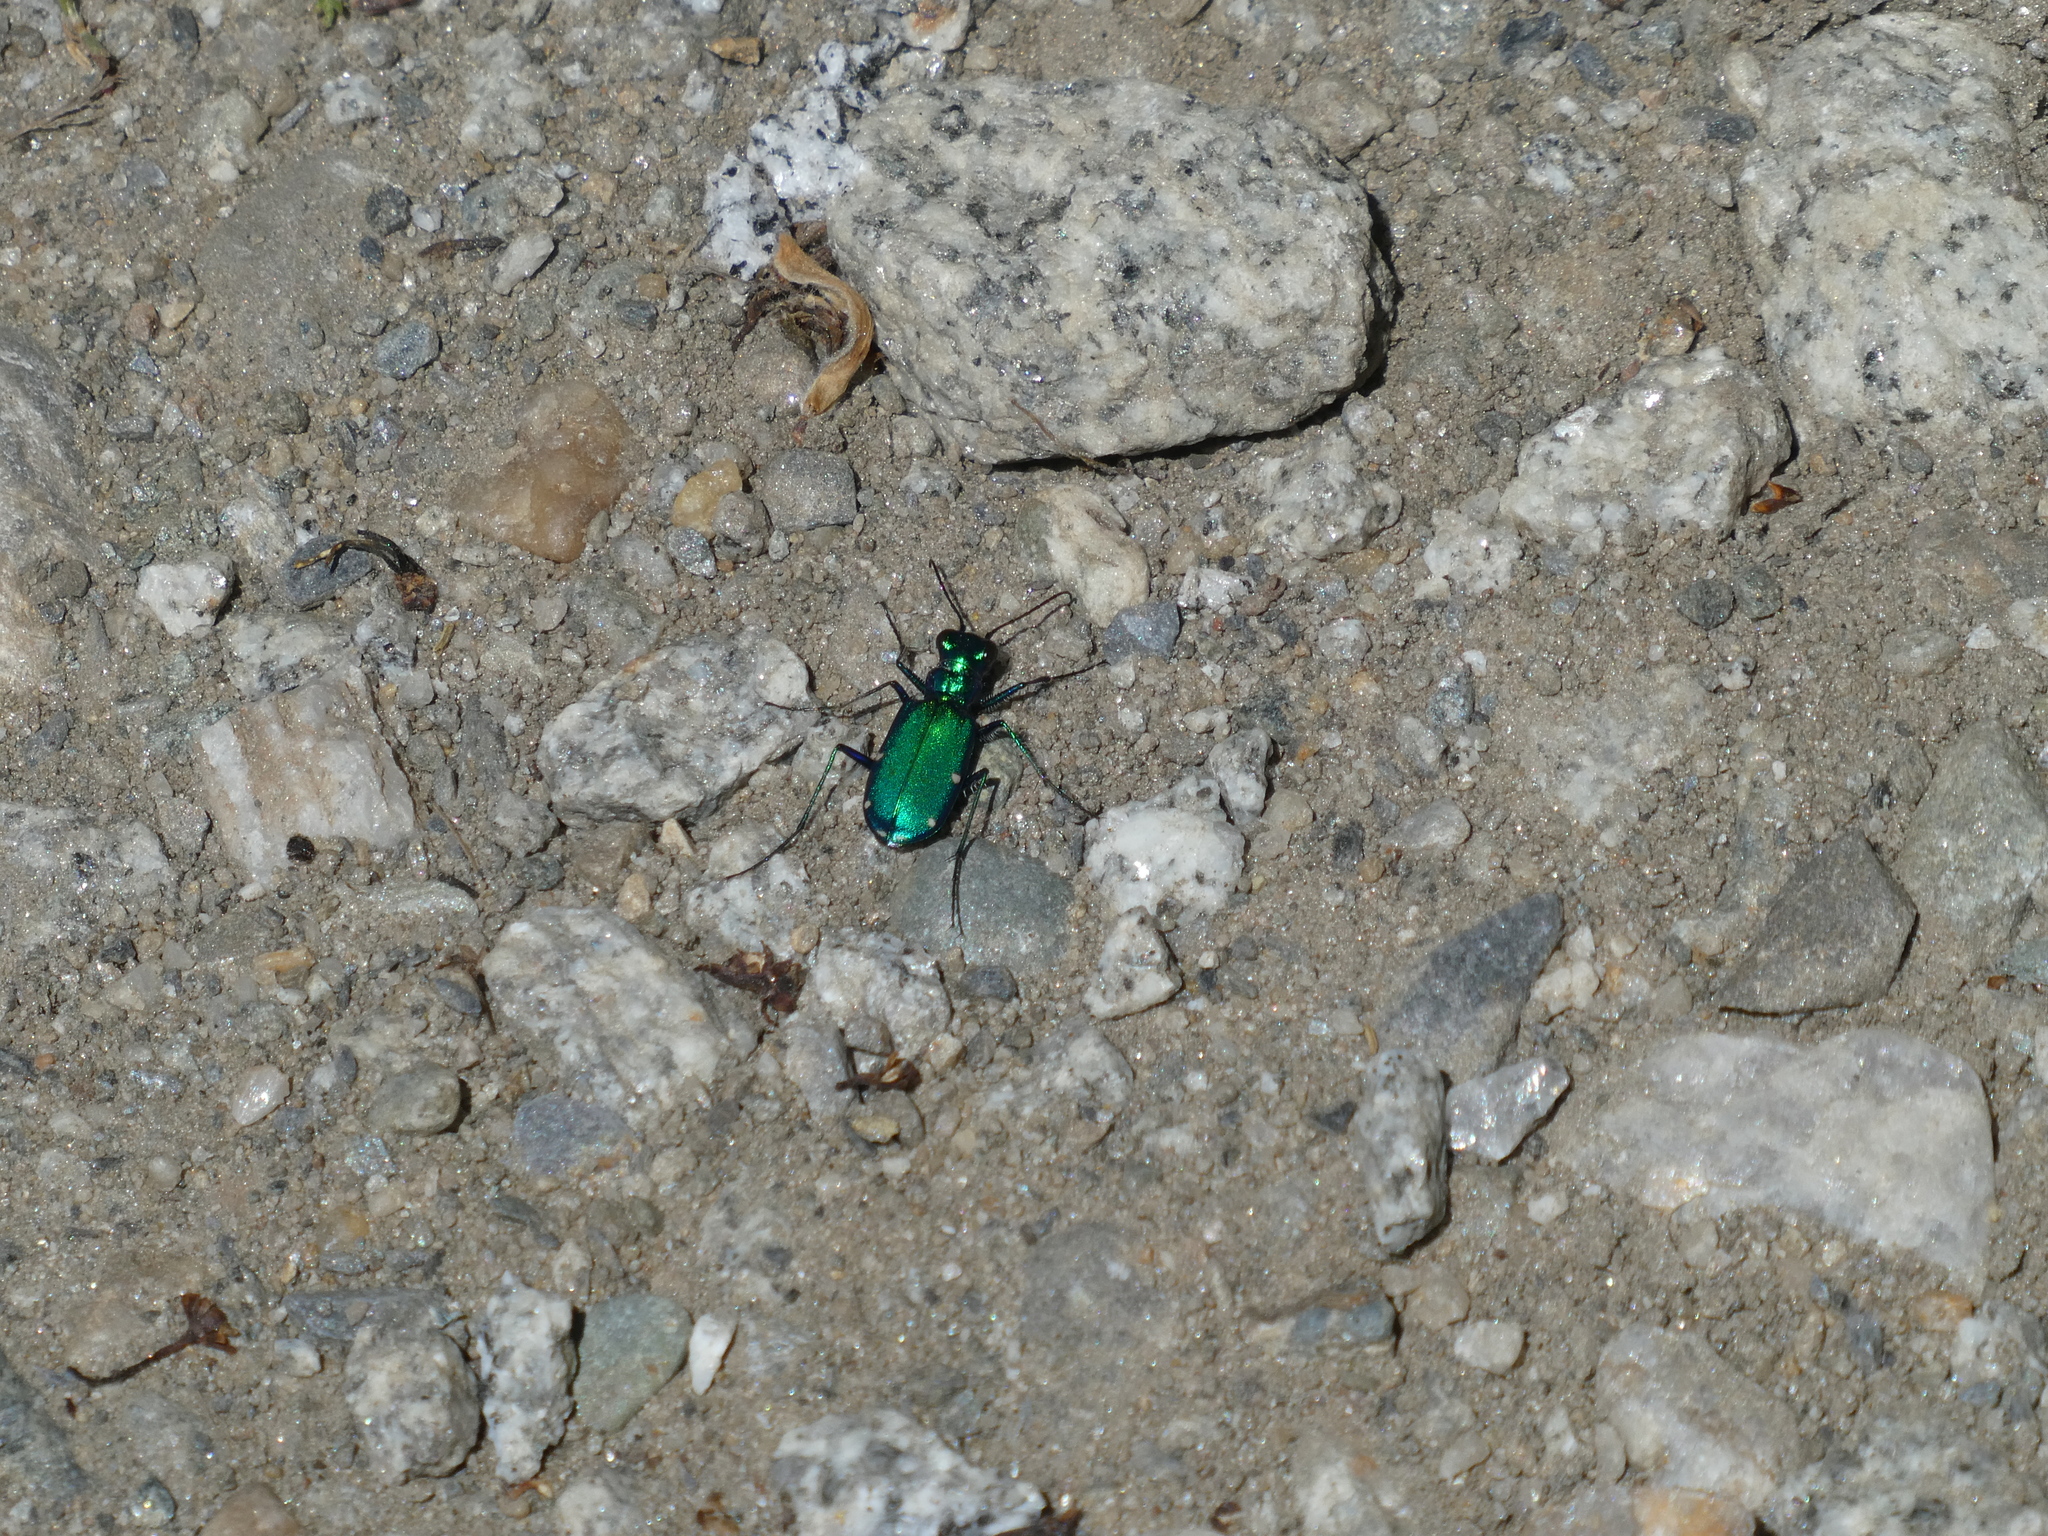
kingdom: Animalia
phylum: Arthropoda
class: Insecta
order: Coleoptera
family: Carabidae
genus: Cicindela
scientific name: Cicindela sexguttata
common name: Six-spotted tiger beetle
